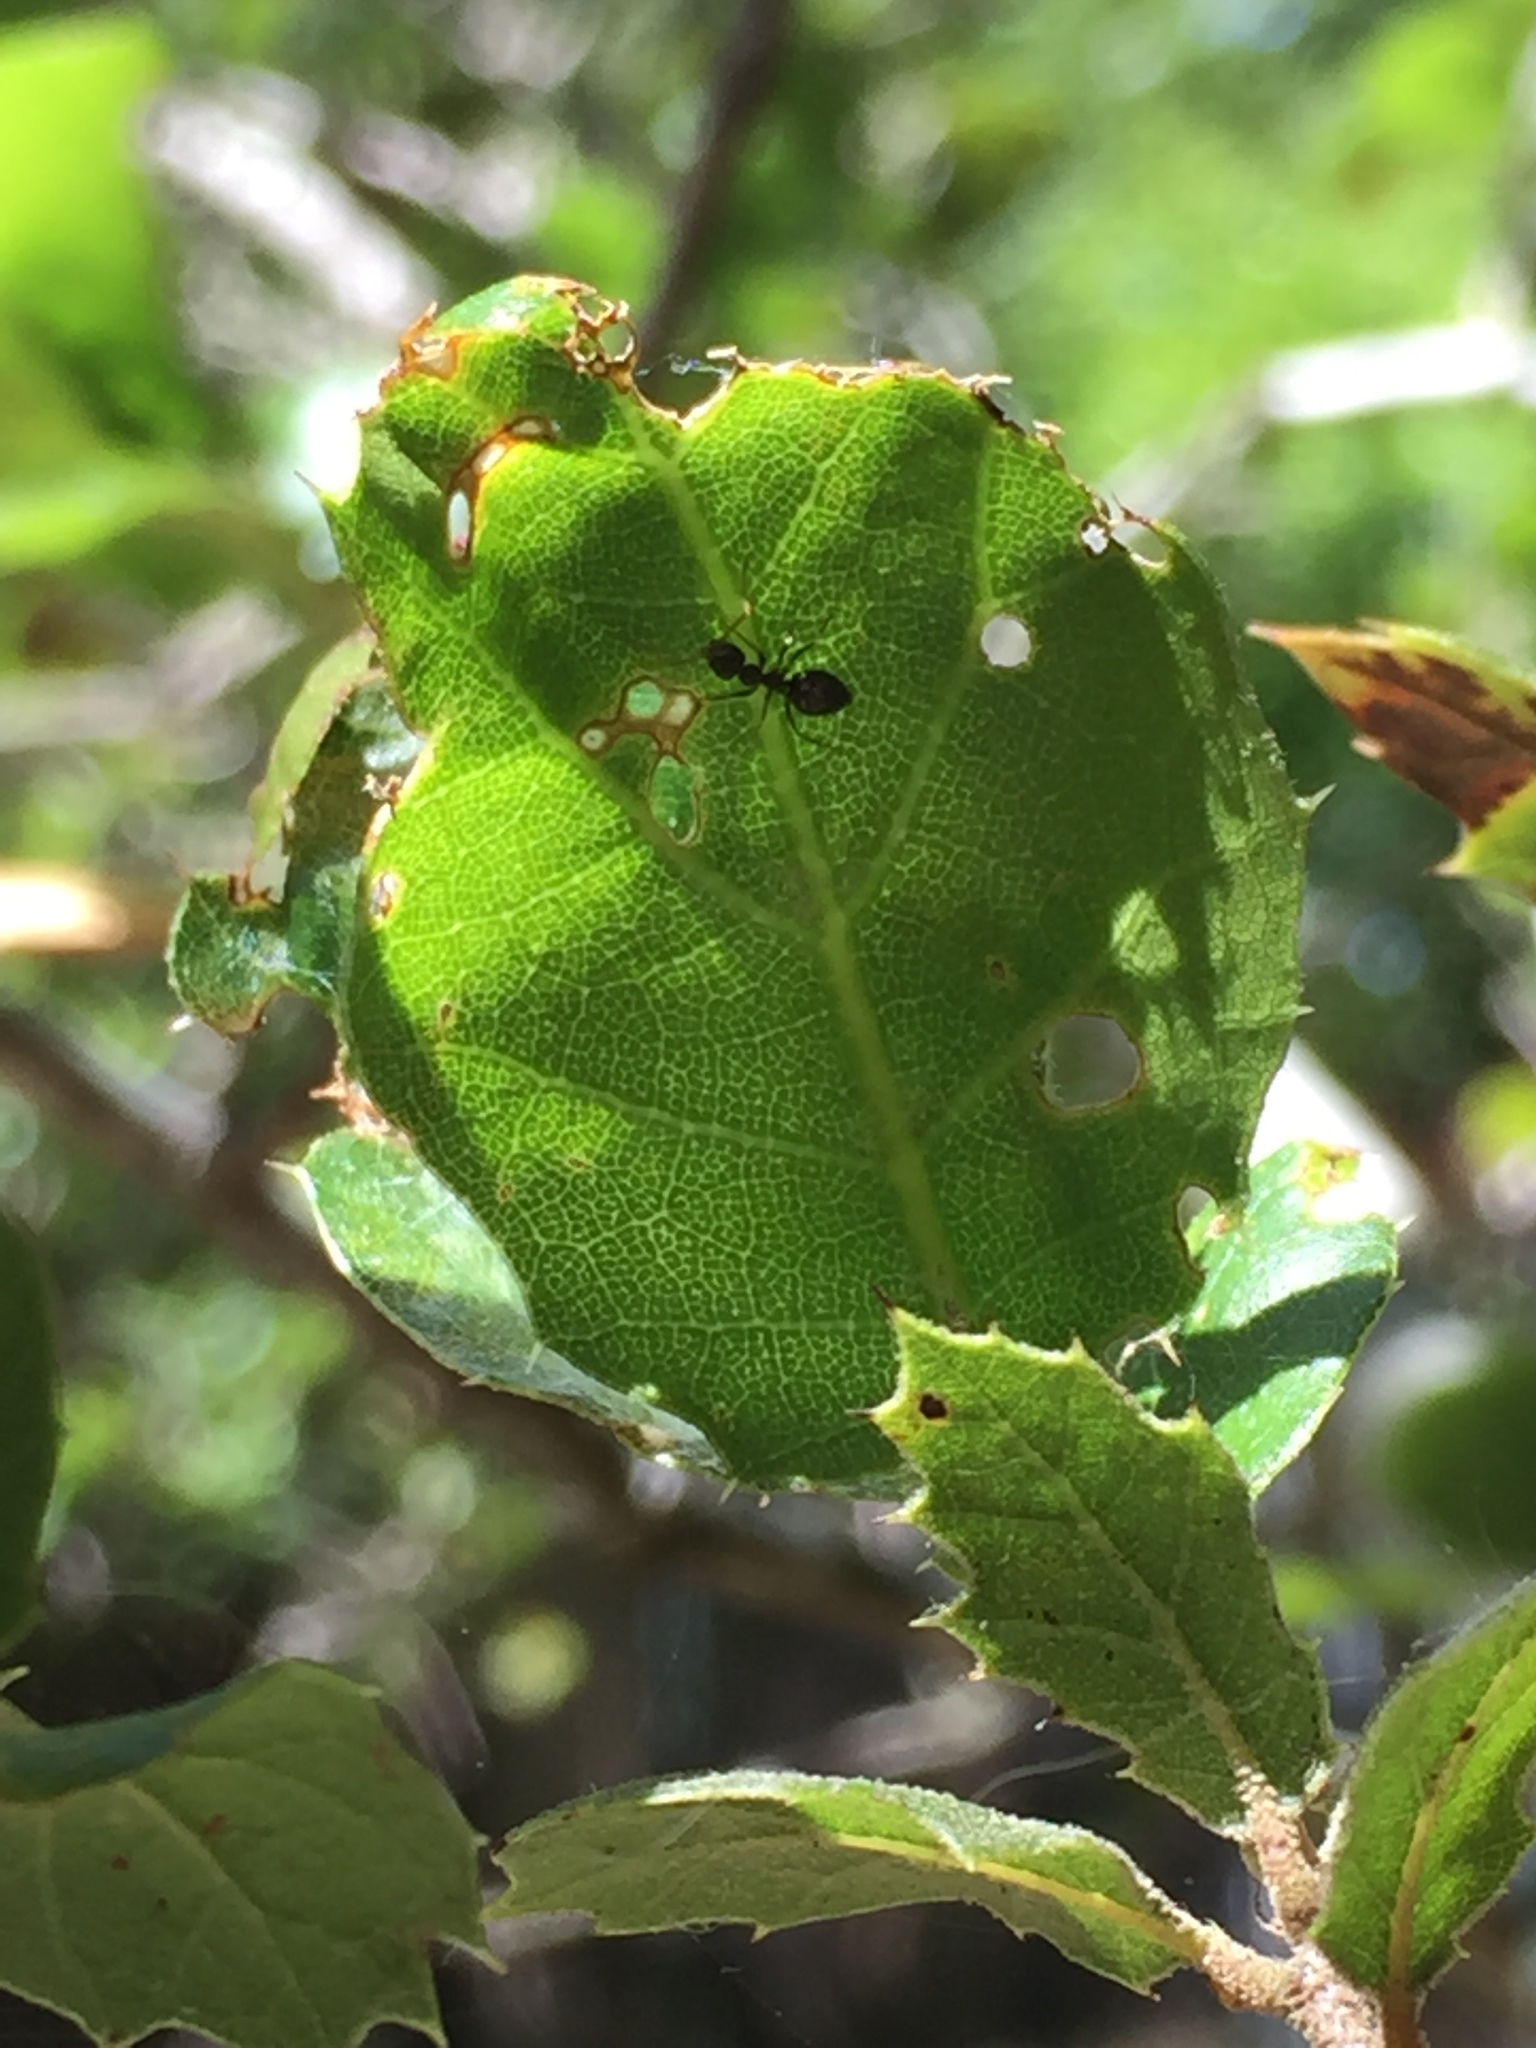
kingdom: Animalia
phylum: Arthropoda
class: Insecta
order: Hymenoptera
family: Formicidae
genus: Prenolepis
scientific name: Prenolepis imparis
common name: Small honey ant
